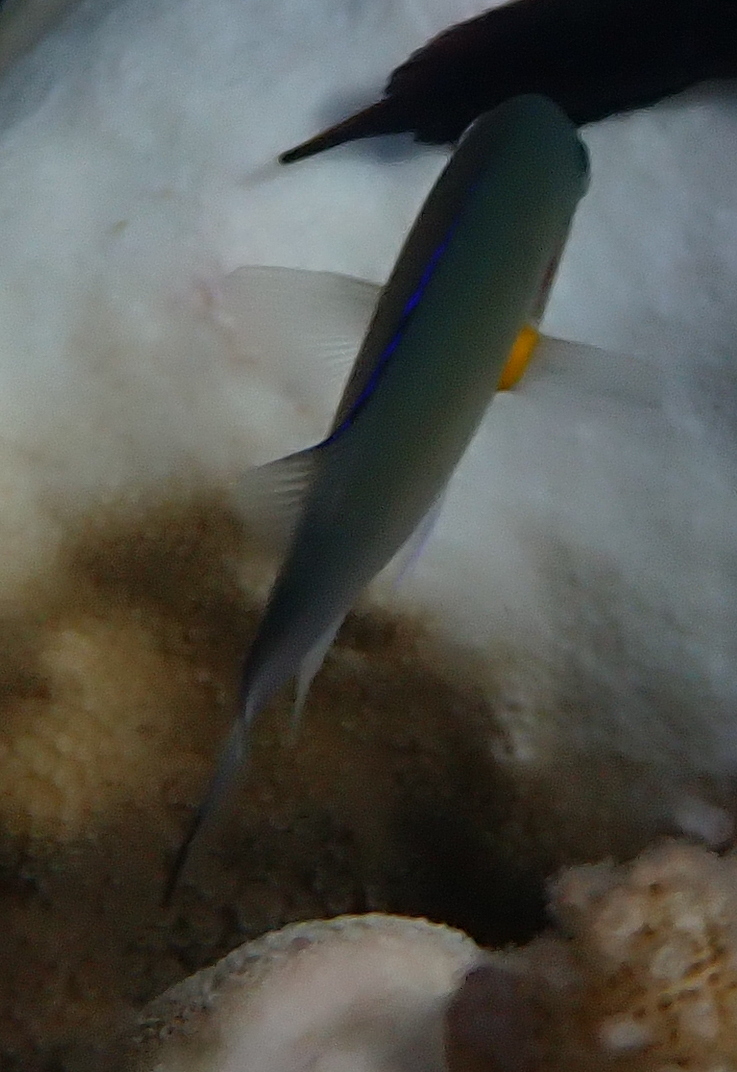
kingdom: Animalia
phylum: Chordata
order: Perciformes
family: Pomacentridae
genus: Chromis
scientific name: Chromis flavaxilla
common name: Arabian chromis
